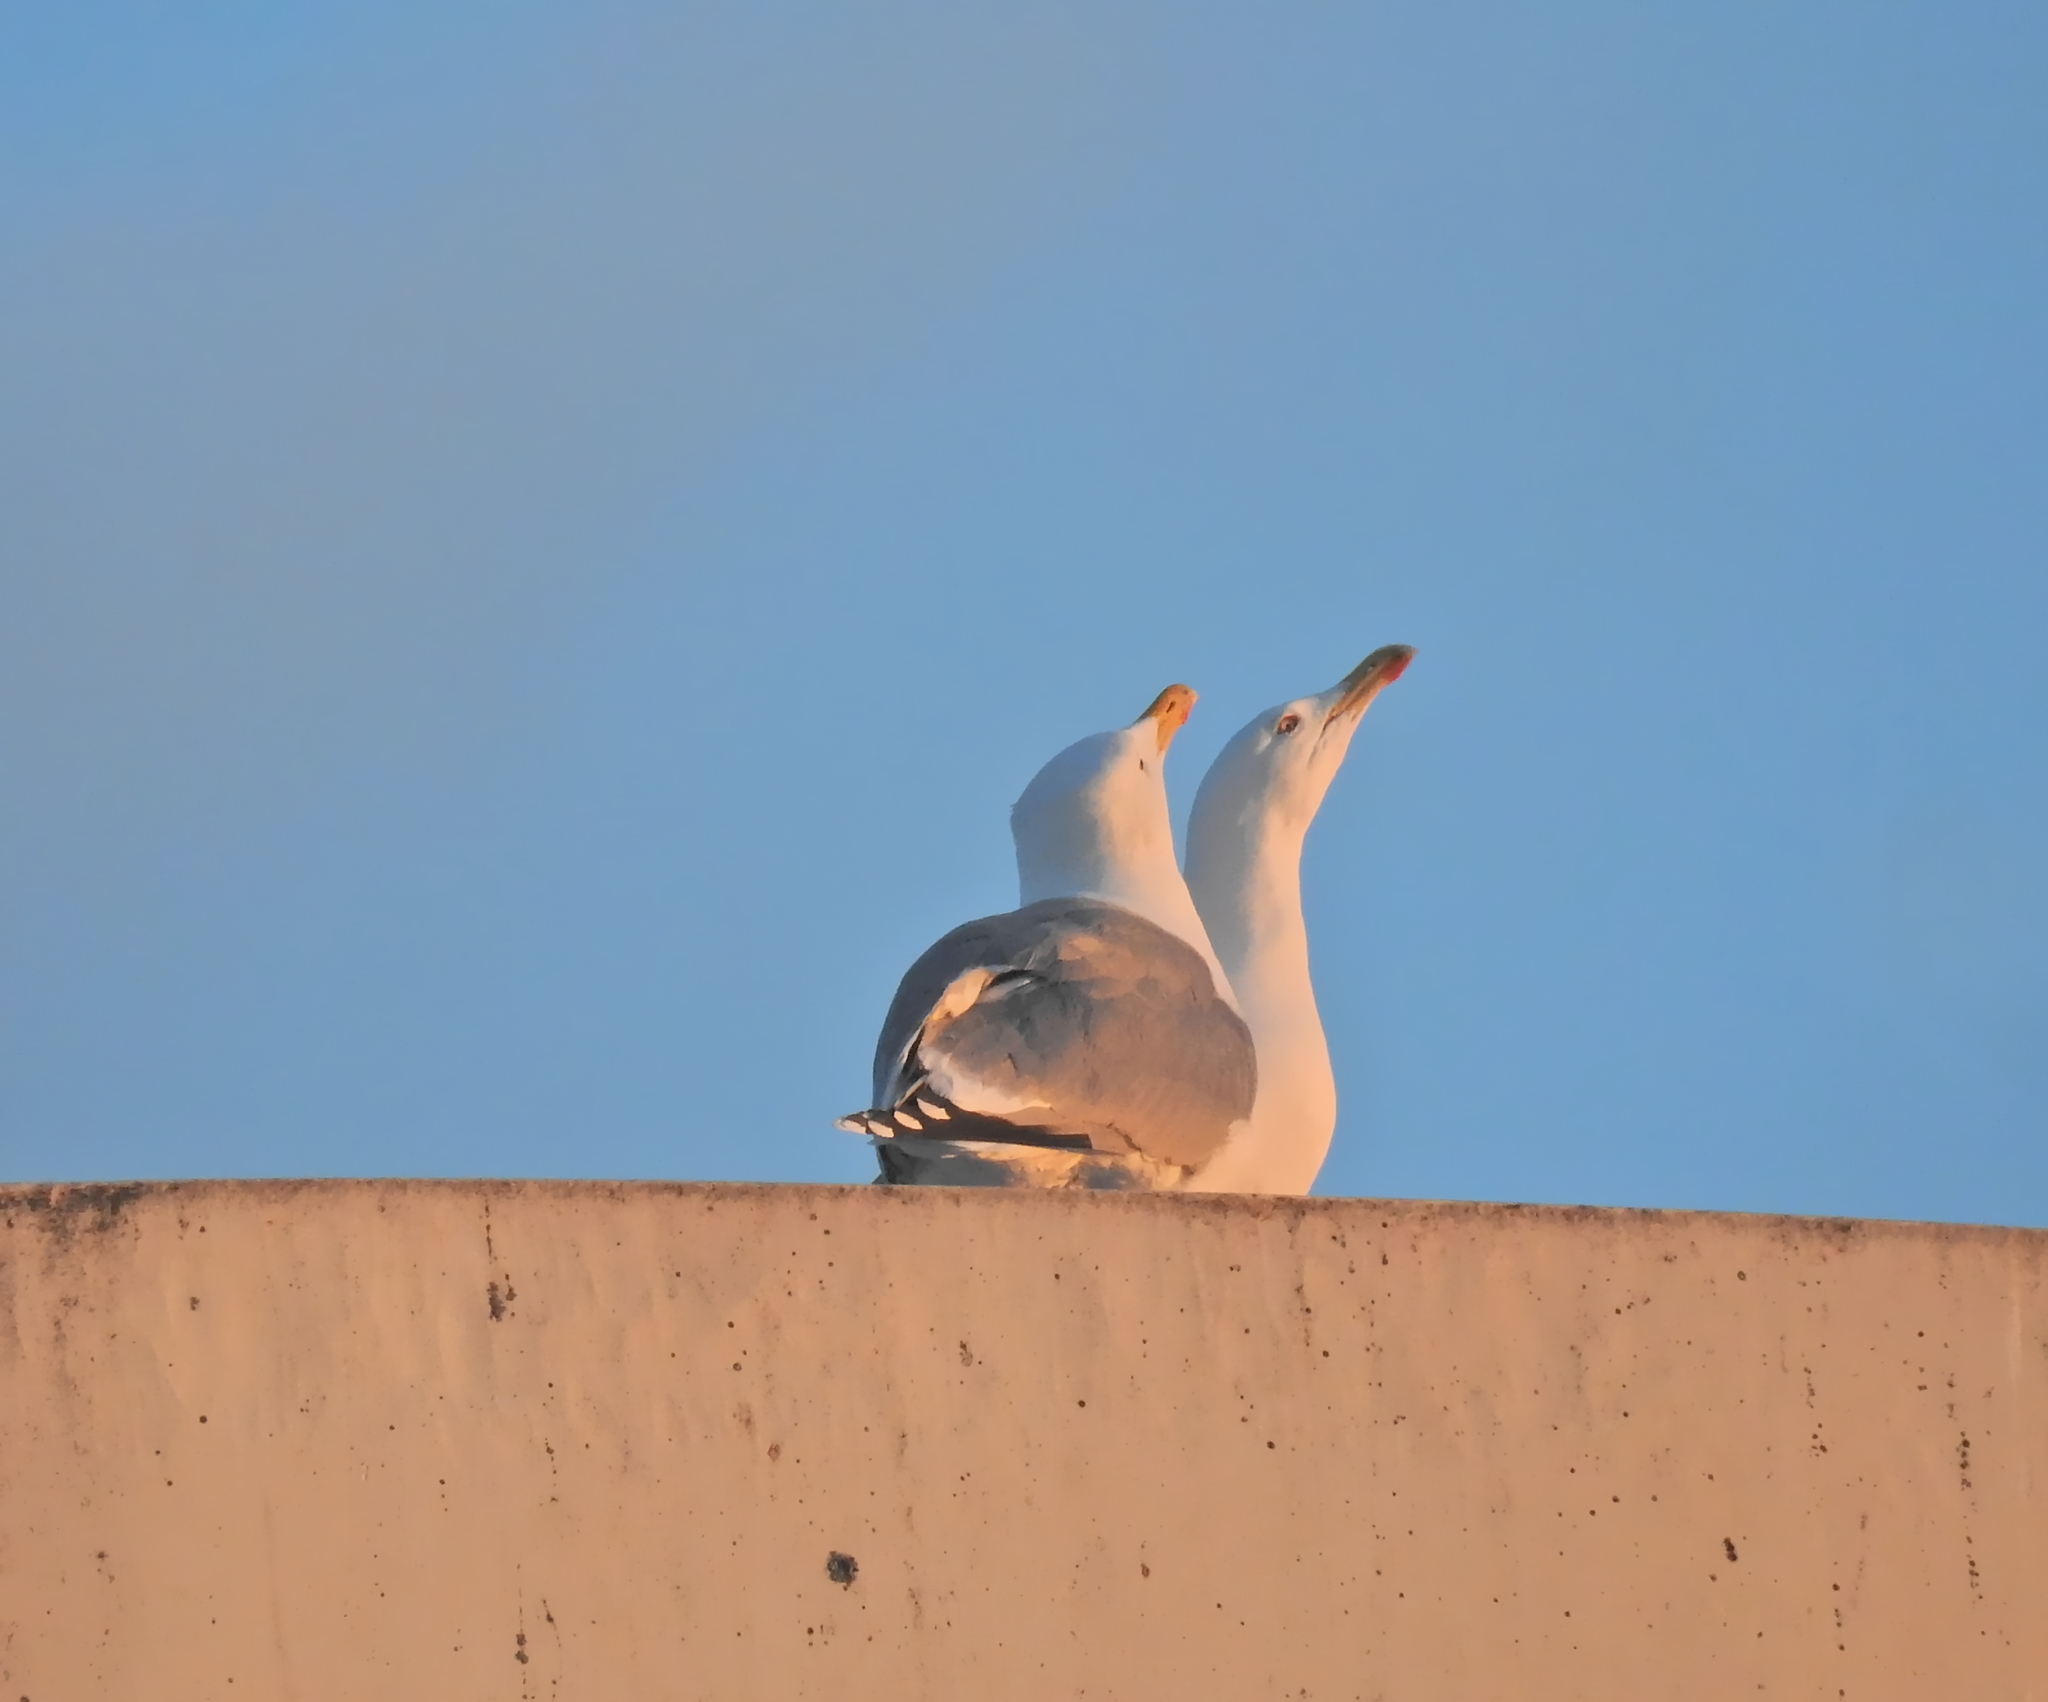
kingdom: Animalia
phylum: Chordata
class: Aves
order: Charadriiformes
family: Laridae
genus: Larus
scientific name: Larus argentatus
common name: Herring gull
